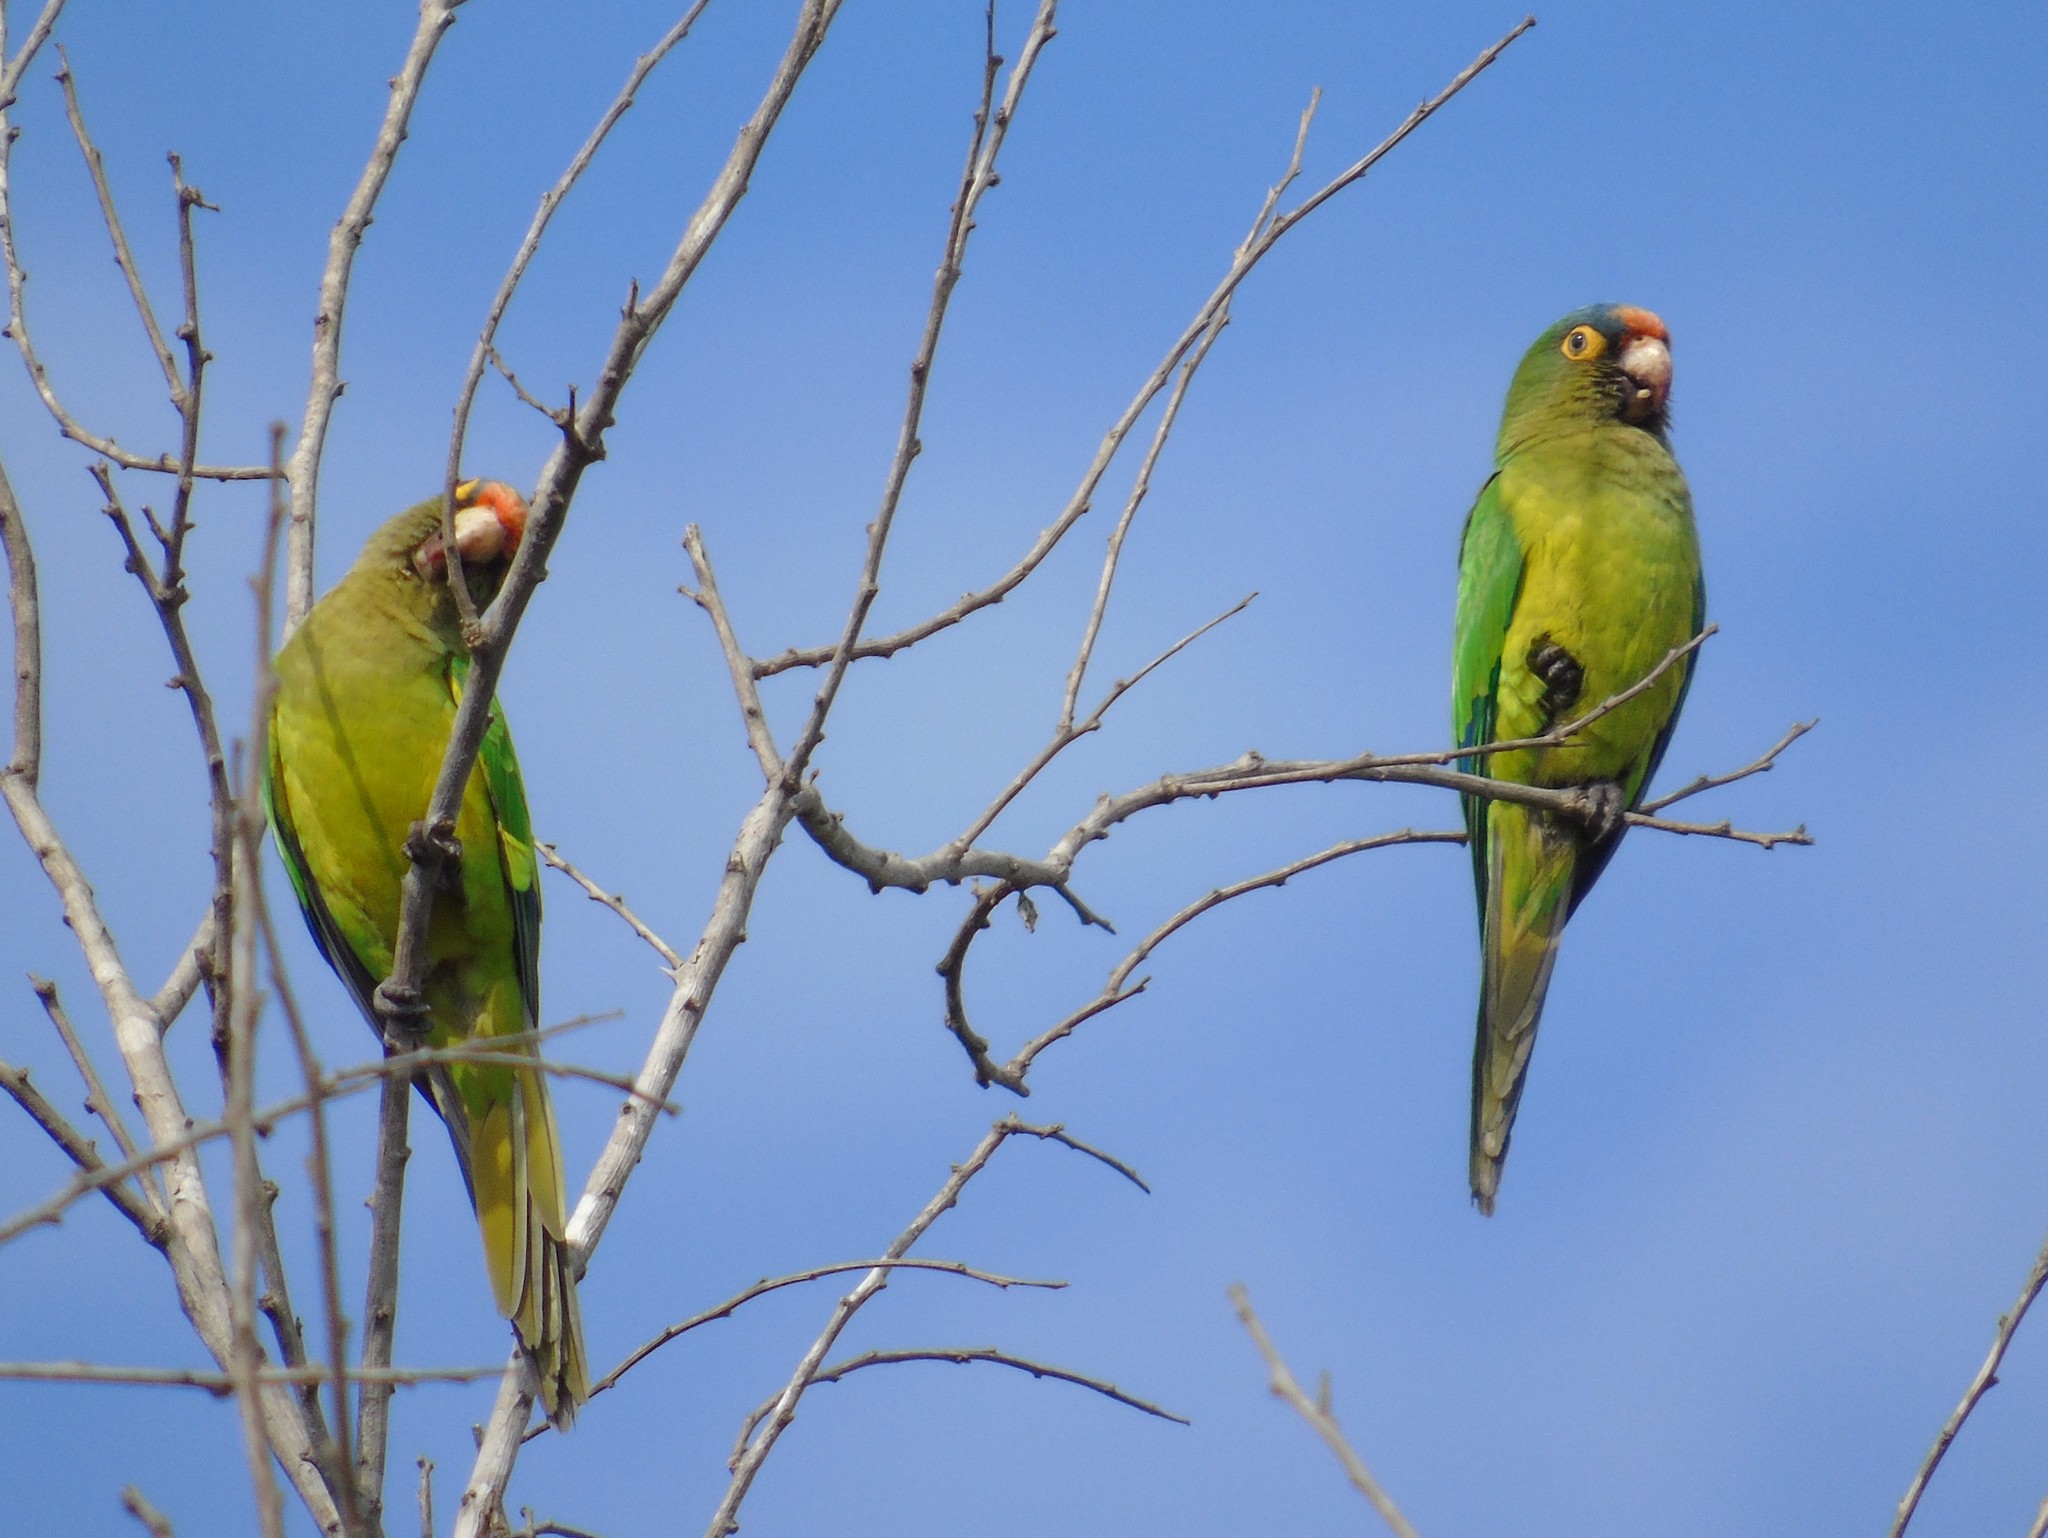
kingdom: Animalia
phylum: Chordata
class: Aves
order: Psittaciformes
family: Psittacidae
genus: Aratinga
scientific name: Aratinga canicularis
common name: Orange-fronted parakeet
